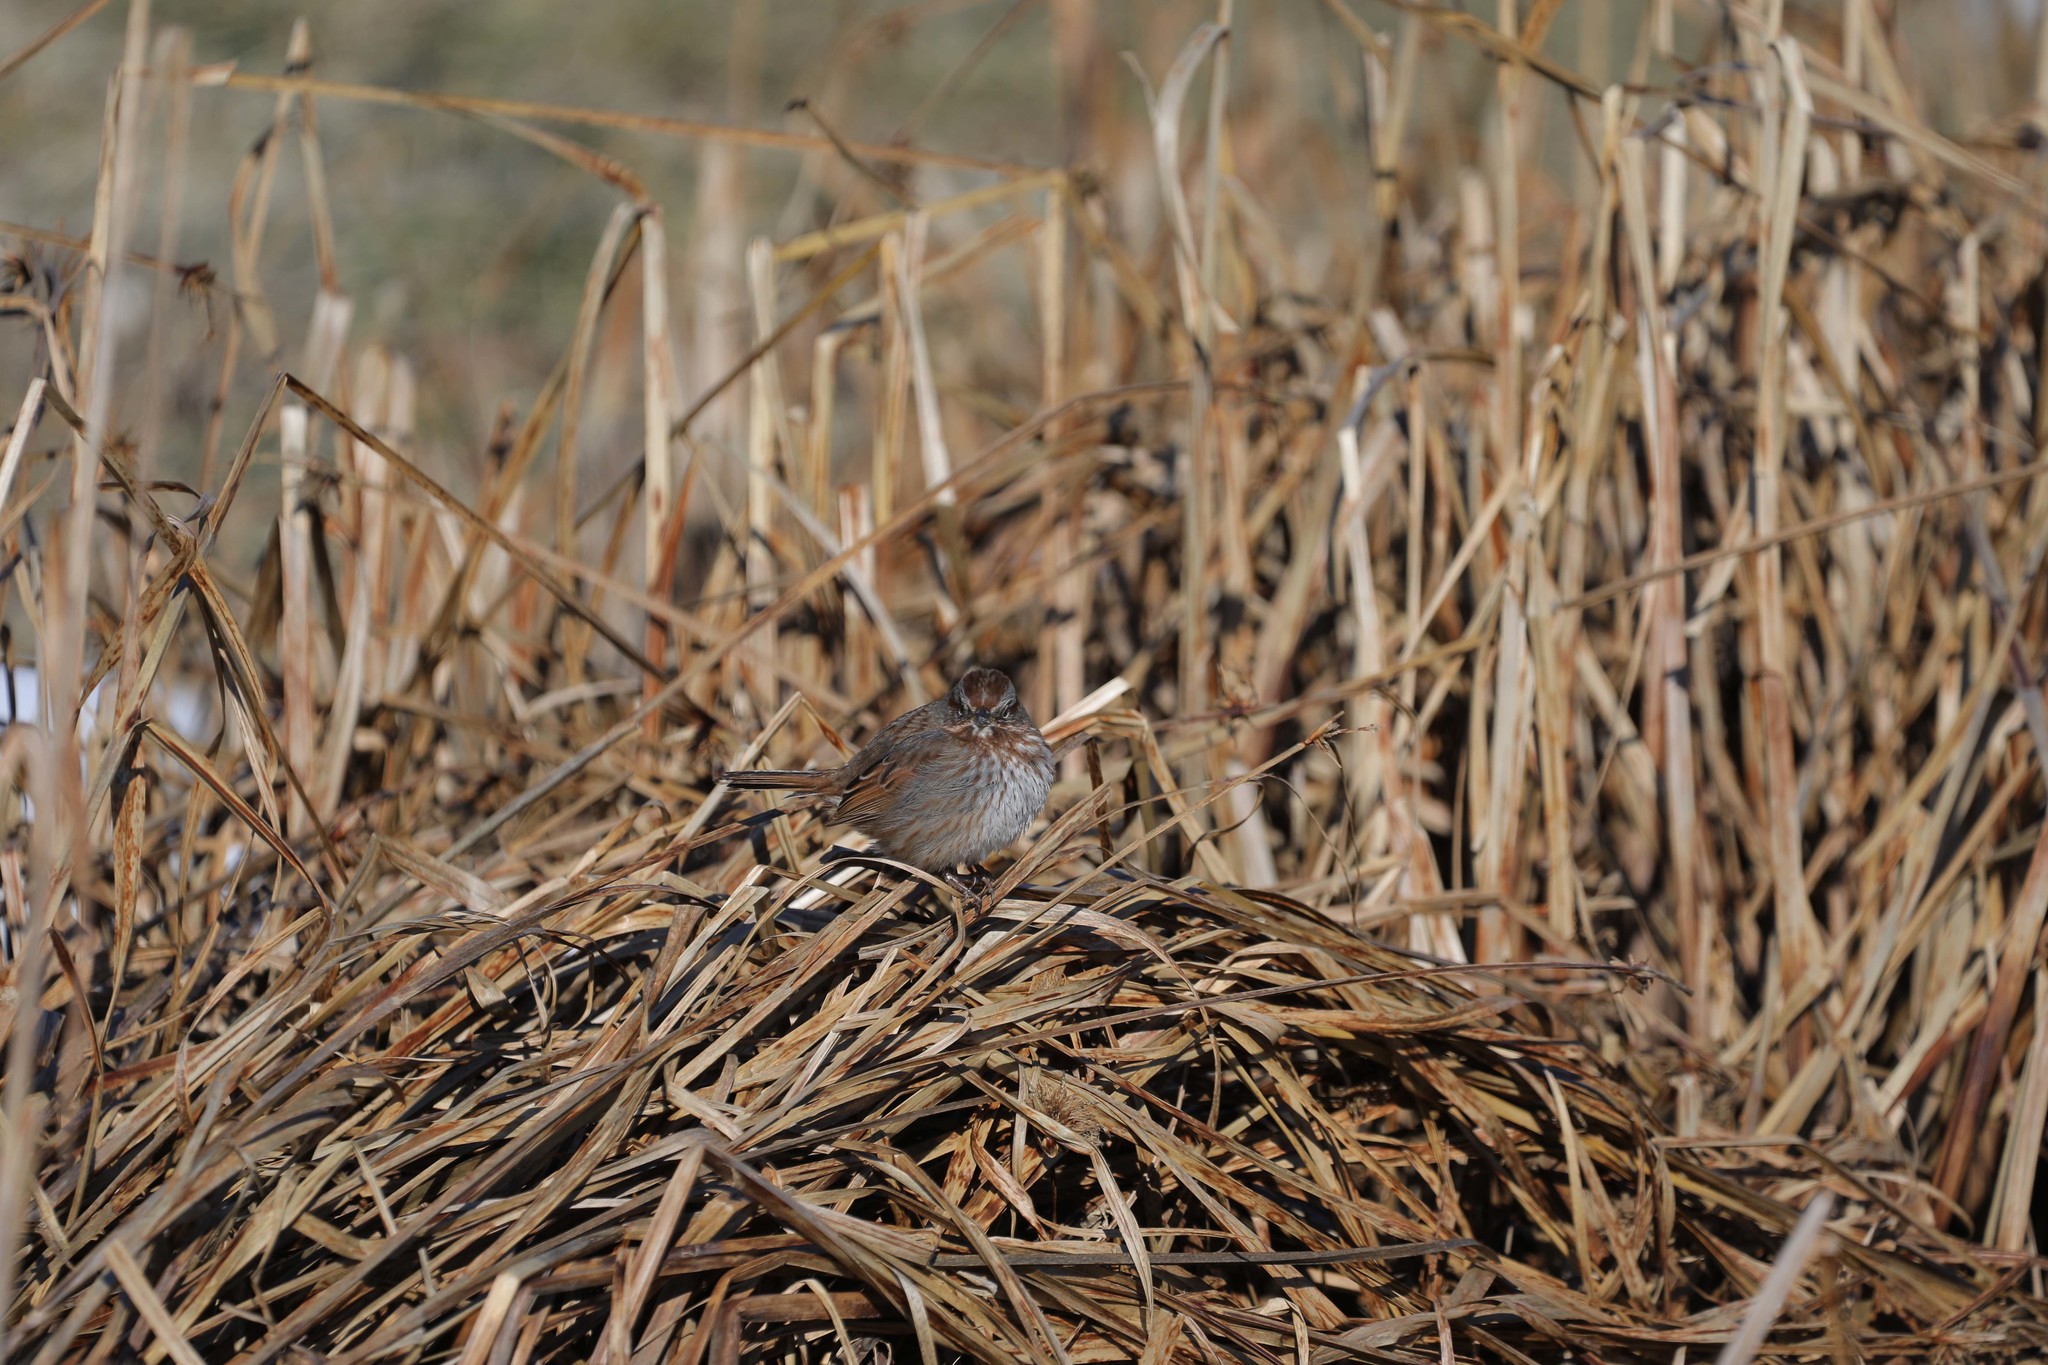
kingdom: Animalia
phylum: Chordata
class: Aves
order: Passeriformes
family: Passerellidae
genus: Melospiza
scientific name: Melospiza melodia
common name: Song sparrow
